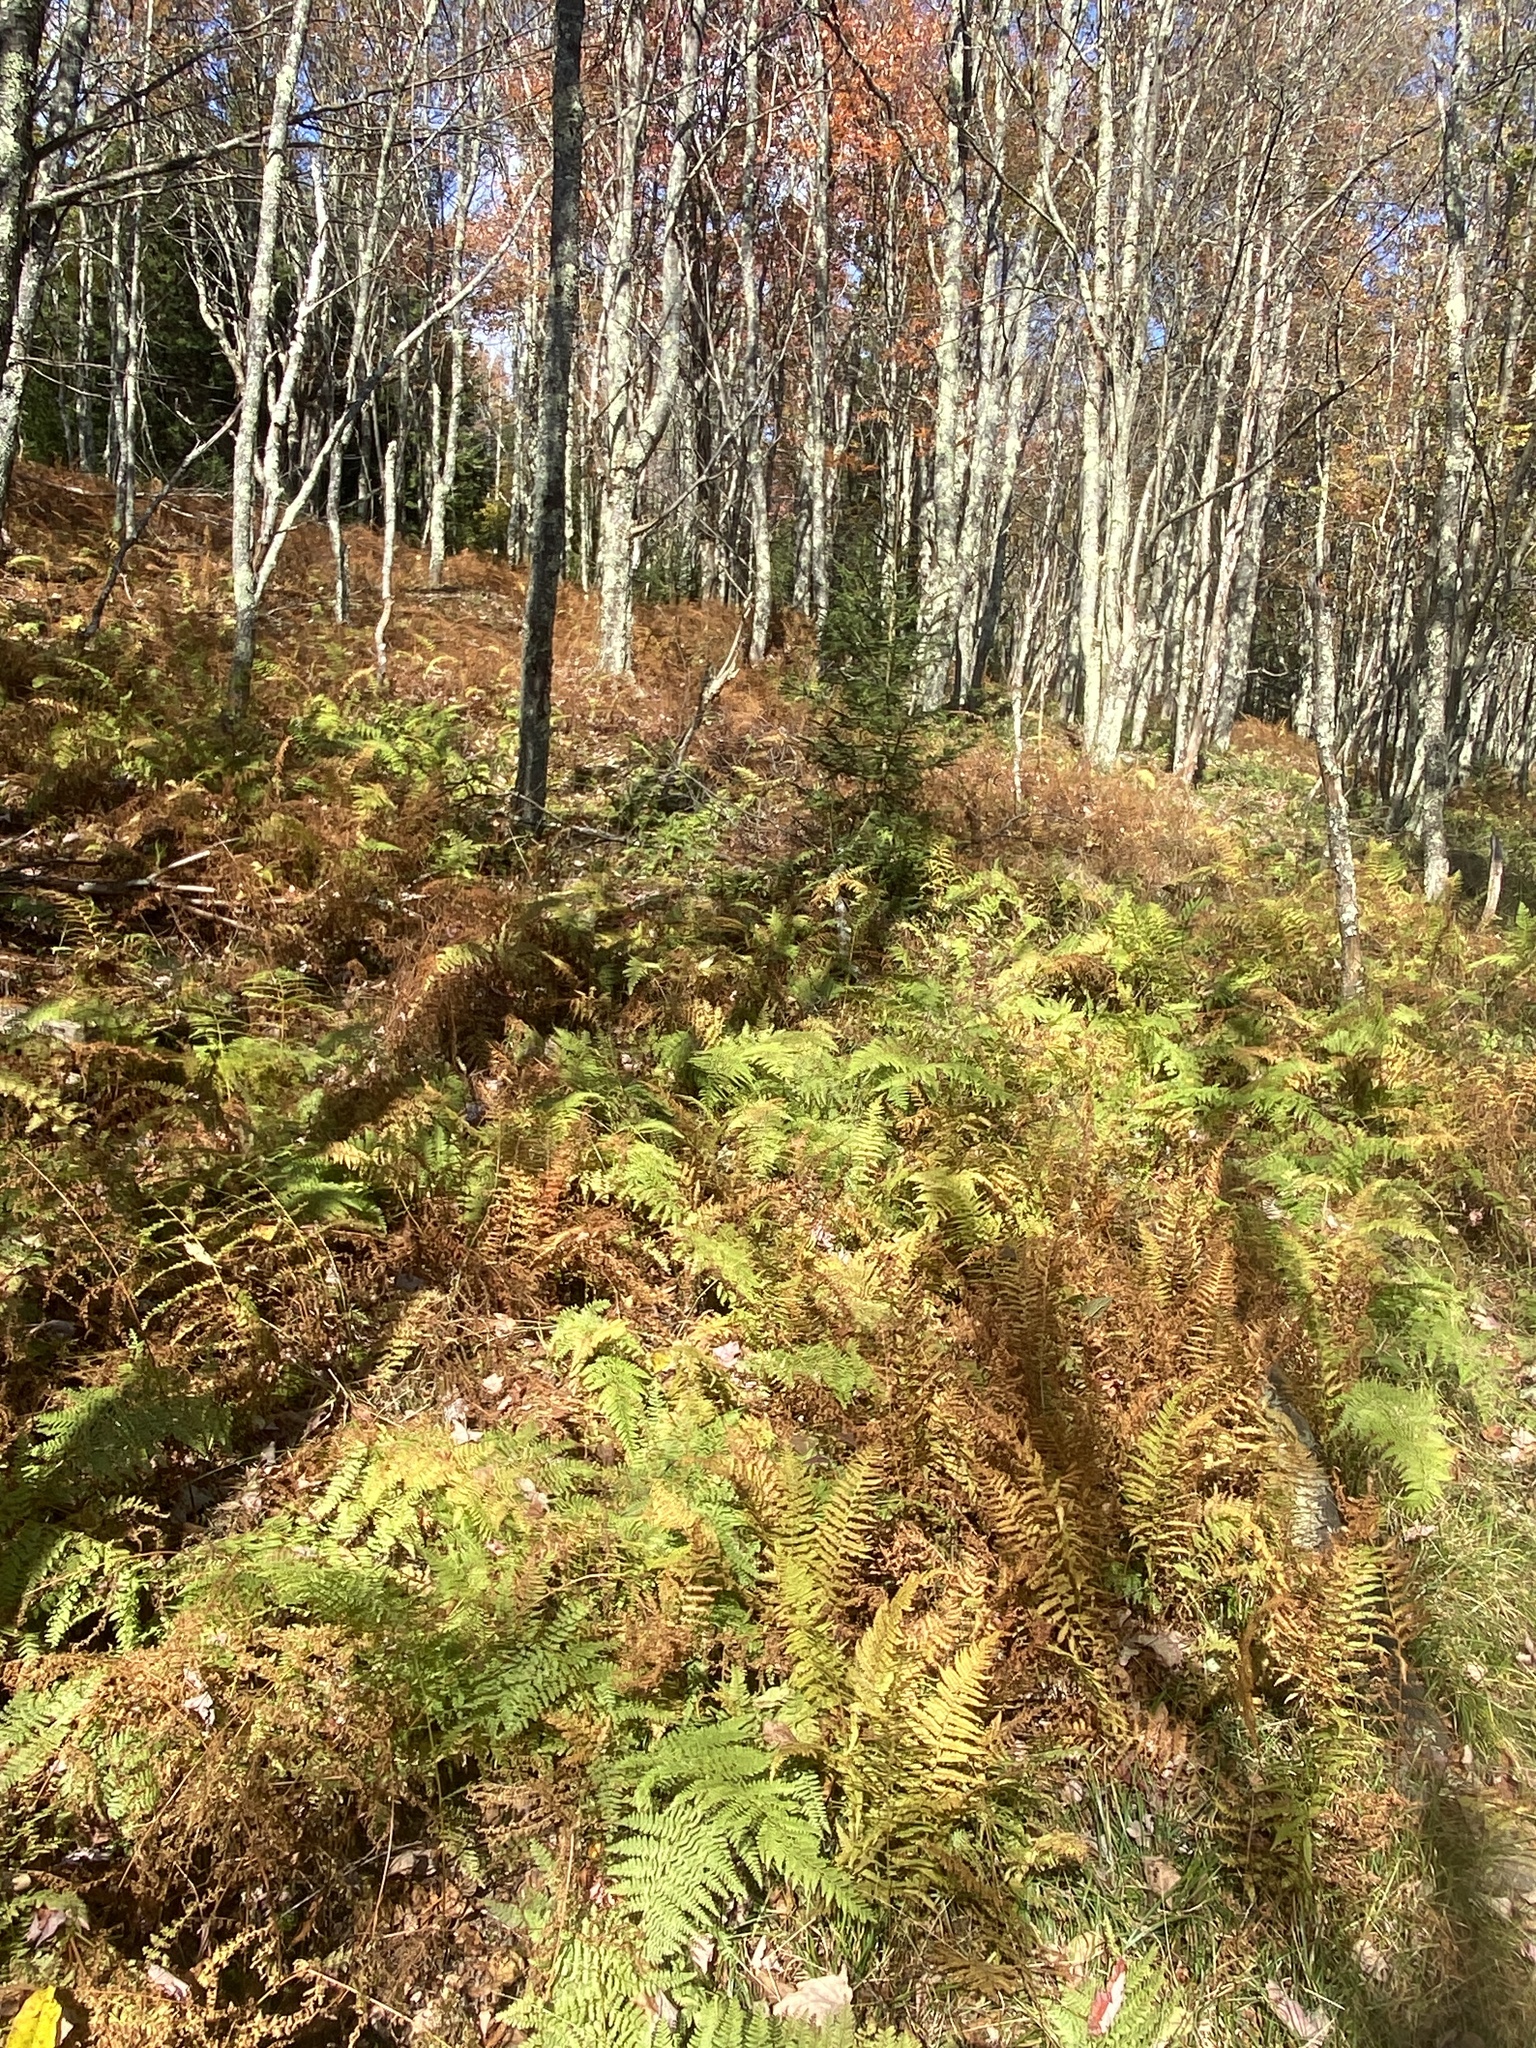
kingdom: Plantae
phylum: Tracheophyta
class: Polypodiopsida
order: Polypodiales
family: Dennstaedtiaceae
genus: Sitobolium
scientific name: Sitobolium punctilobum
